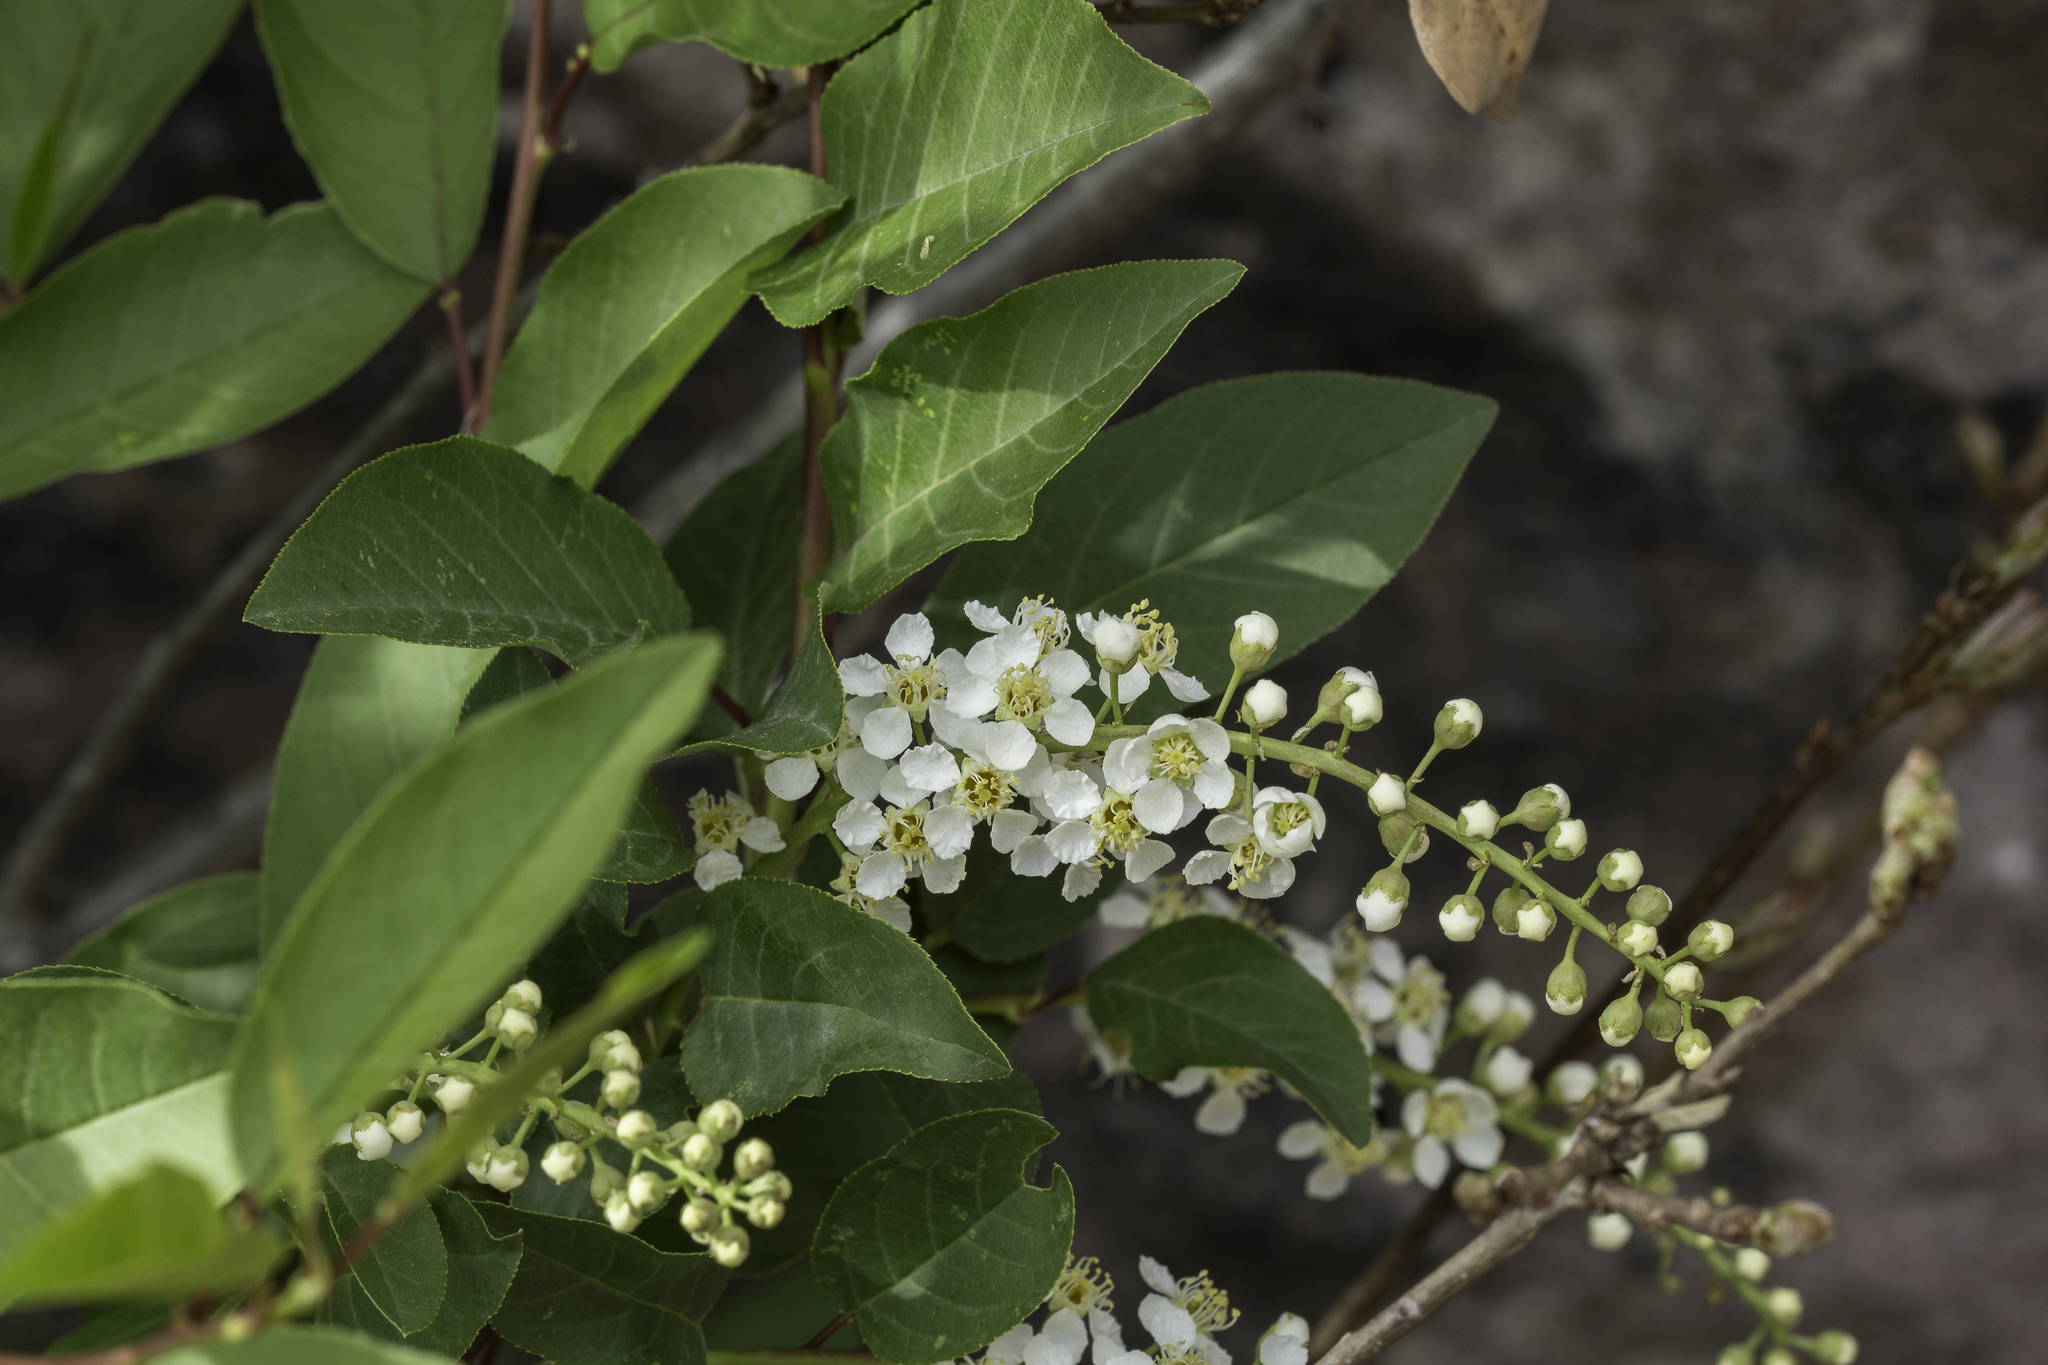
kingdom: Plantae
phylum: Tracheophyta
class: Magnoliopsida
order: Rosales
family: Rosaceae
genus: Prunus
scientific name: Prunus virginiana
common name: Chokecherry
